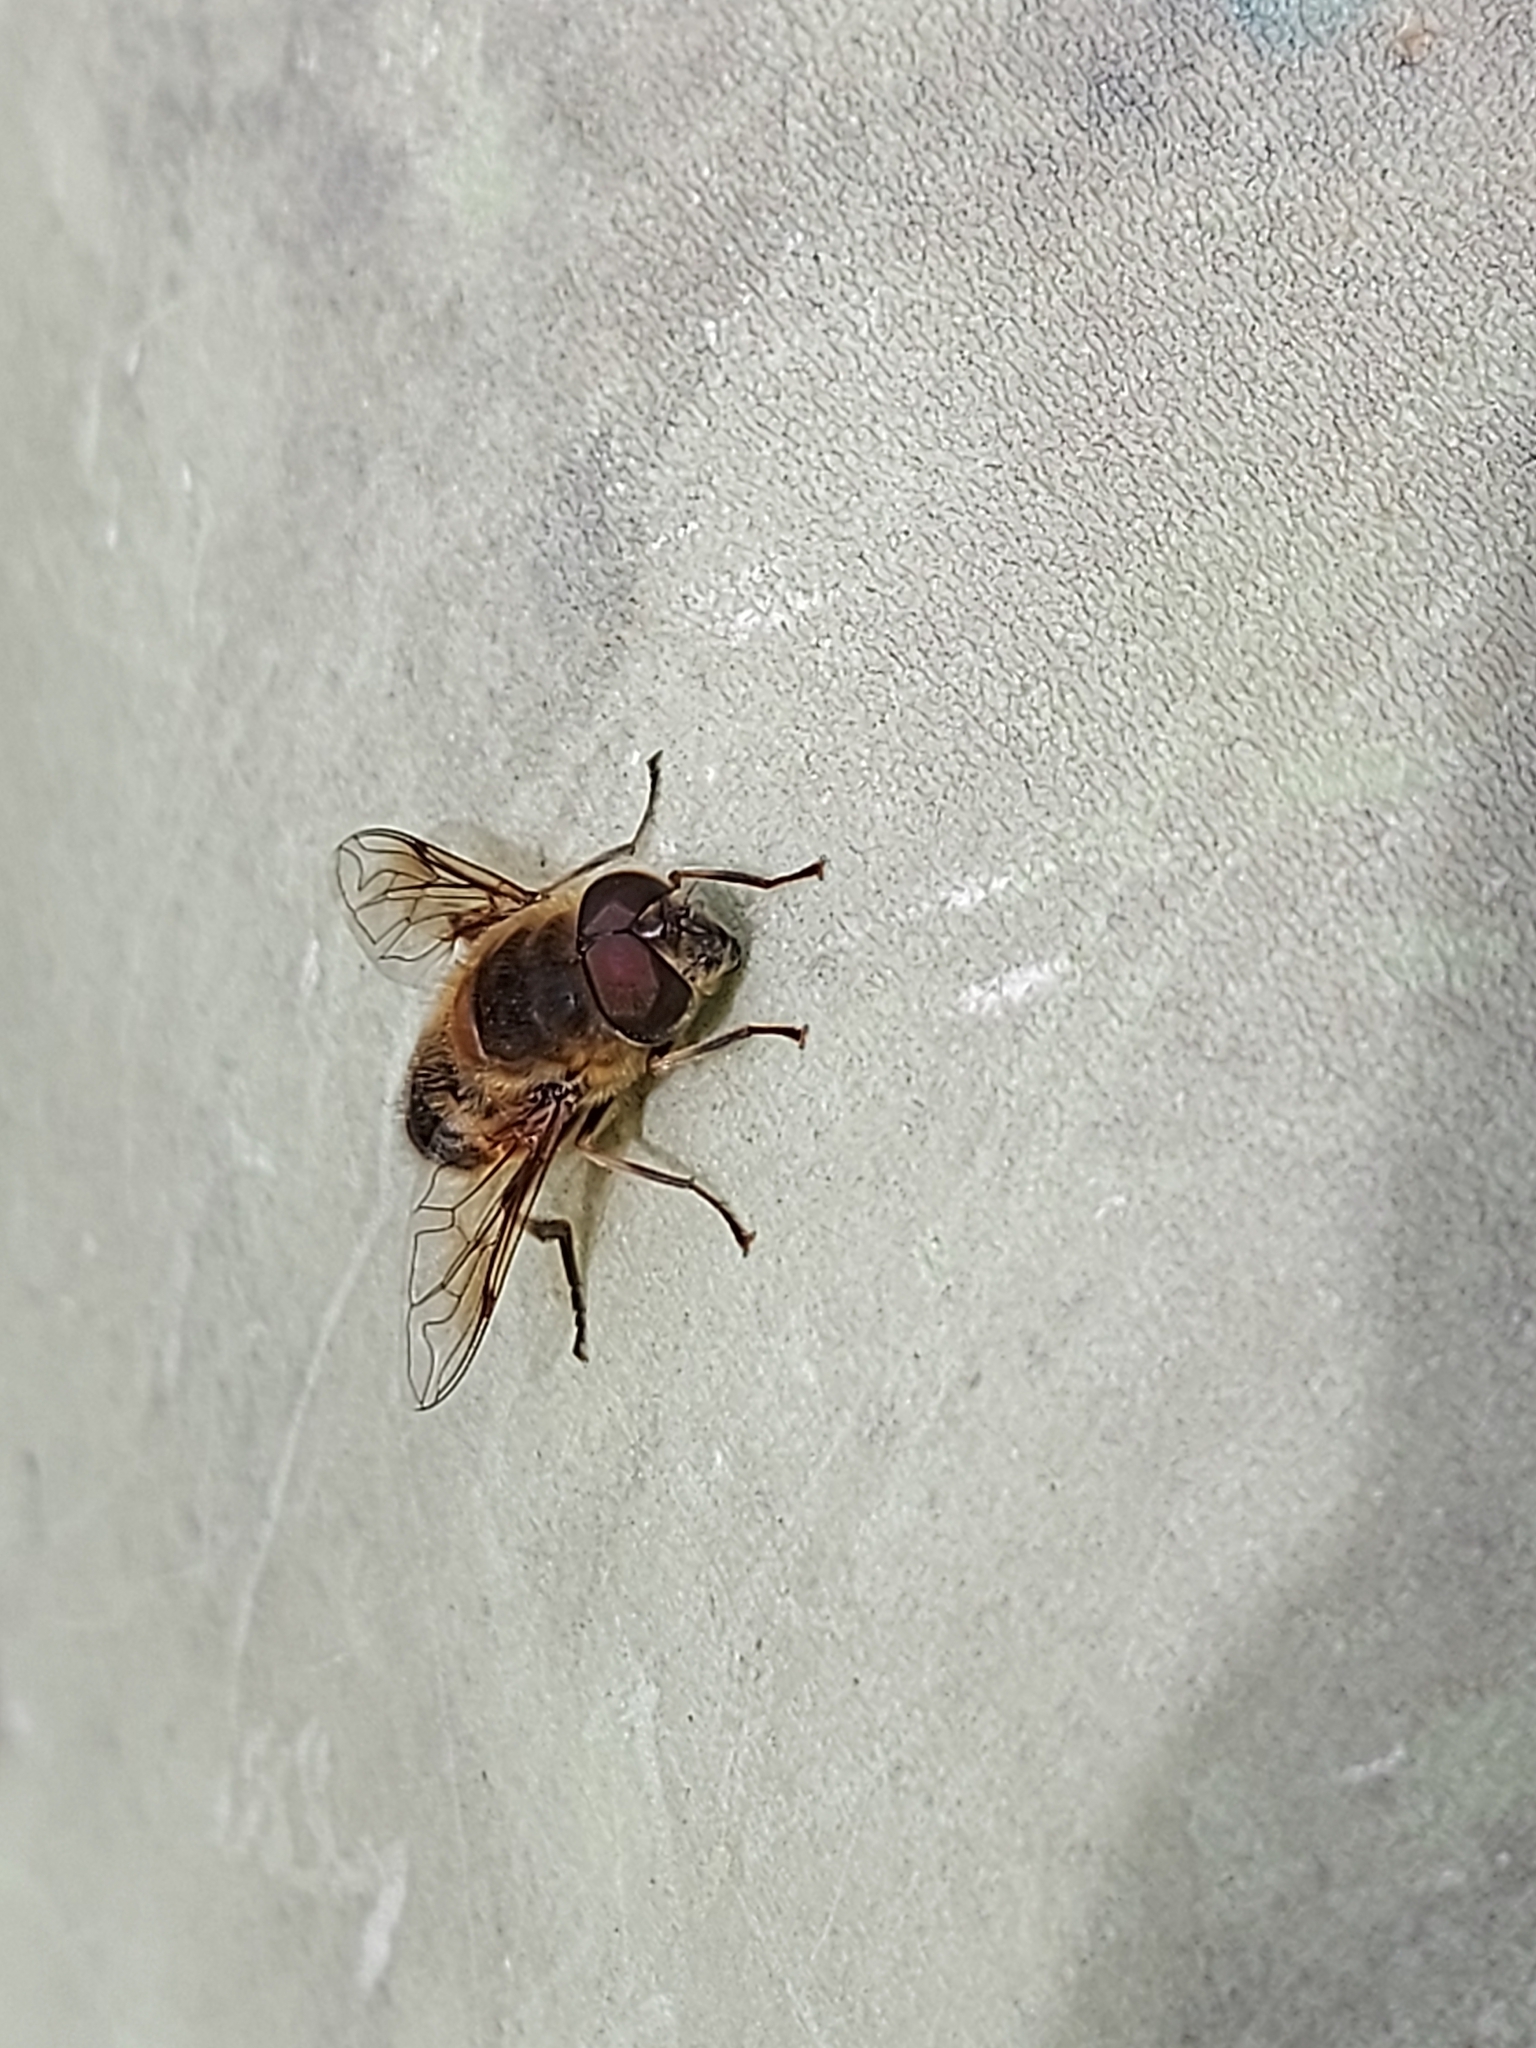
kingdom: Animalia
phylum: Arthropoda
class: Insecta
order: Diptera
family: Syrphidae
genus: Eristalis
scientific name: Eristalis pertinax
